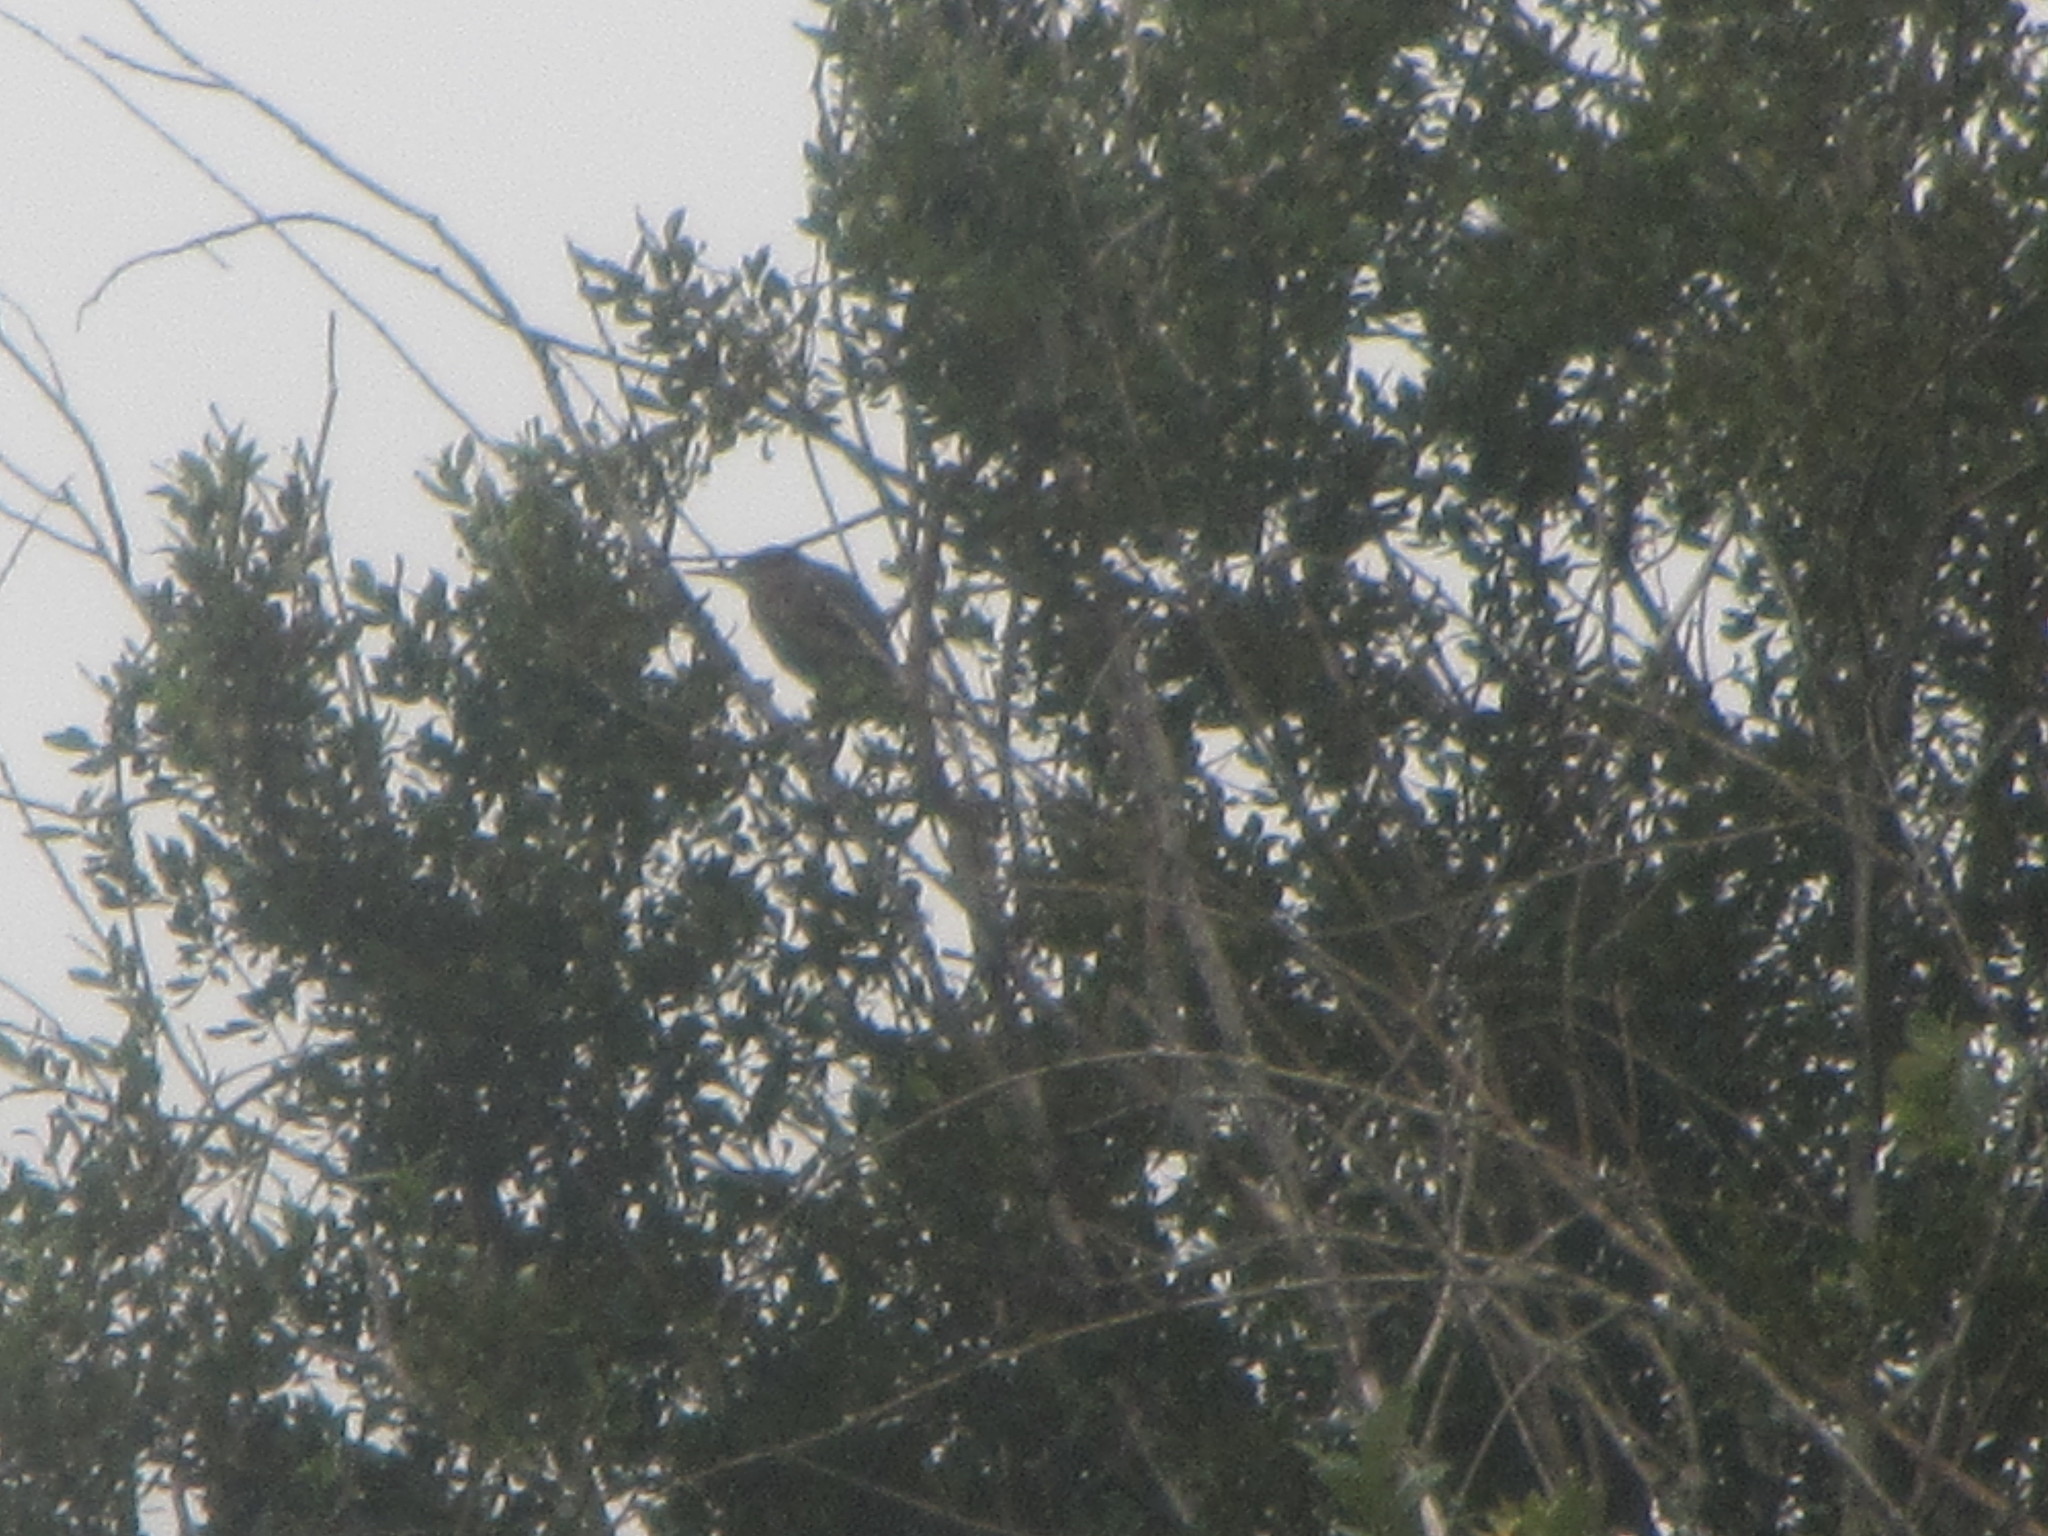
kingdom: Animalia
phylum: Chordata
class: Aves
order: Pelecaniformes
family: Ardeidae
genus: Butorides
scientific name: Butorides virescens
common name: Green heron
